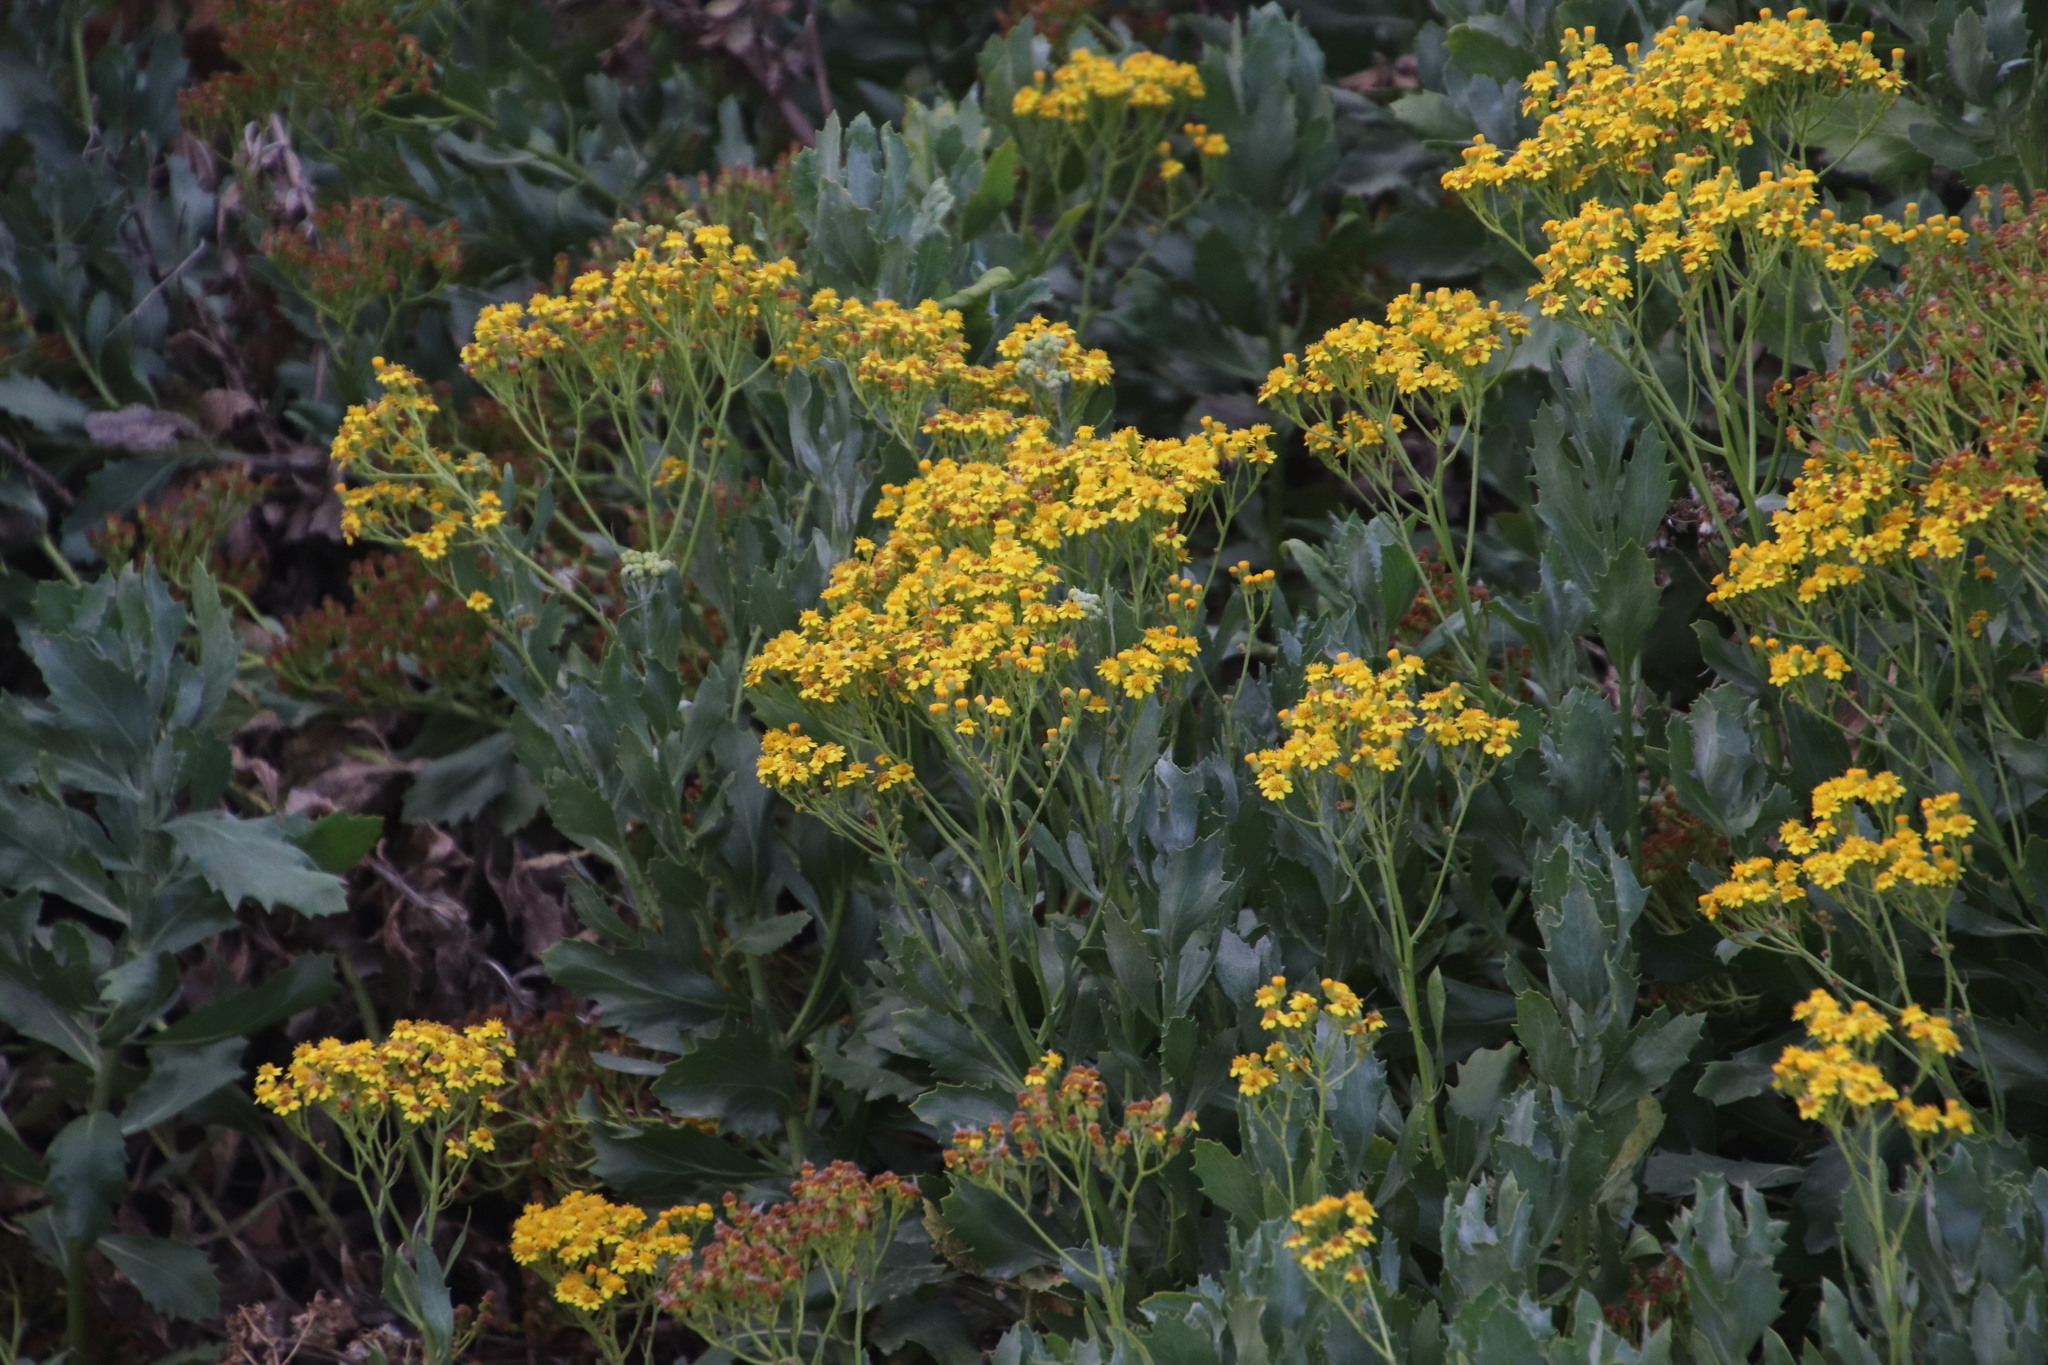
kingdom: Plantae
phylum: Tracheophyta
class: Magnoliopsida
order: Asterales
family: Asteraceae
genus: Senecio
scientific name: Senecio halimifolius
